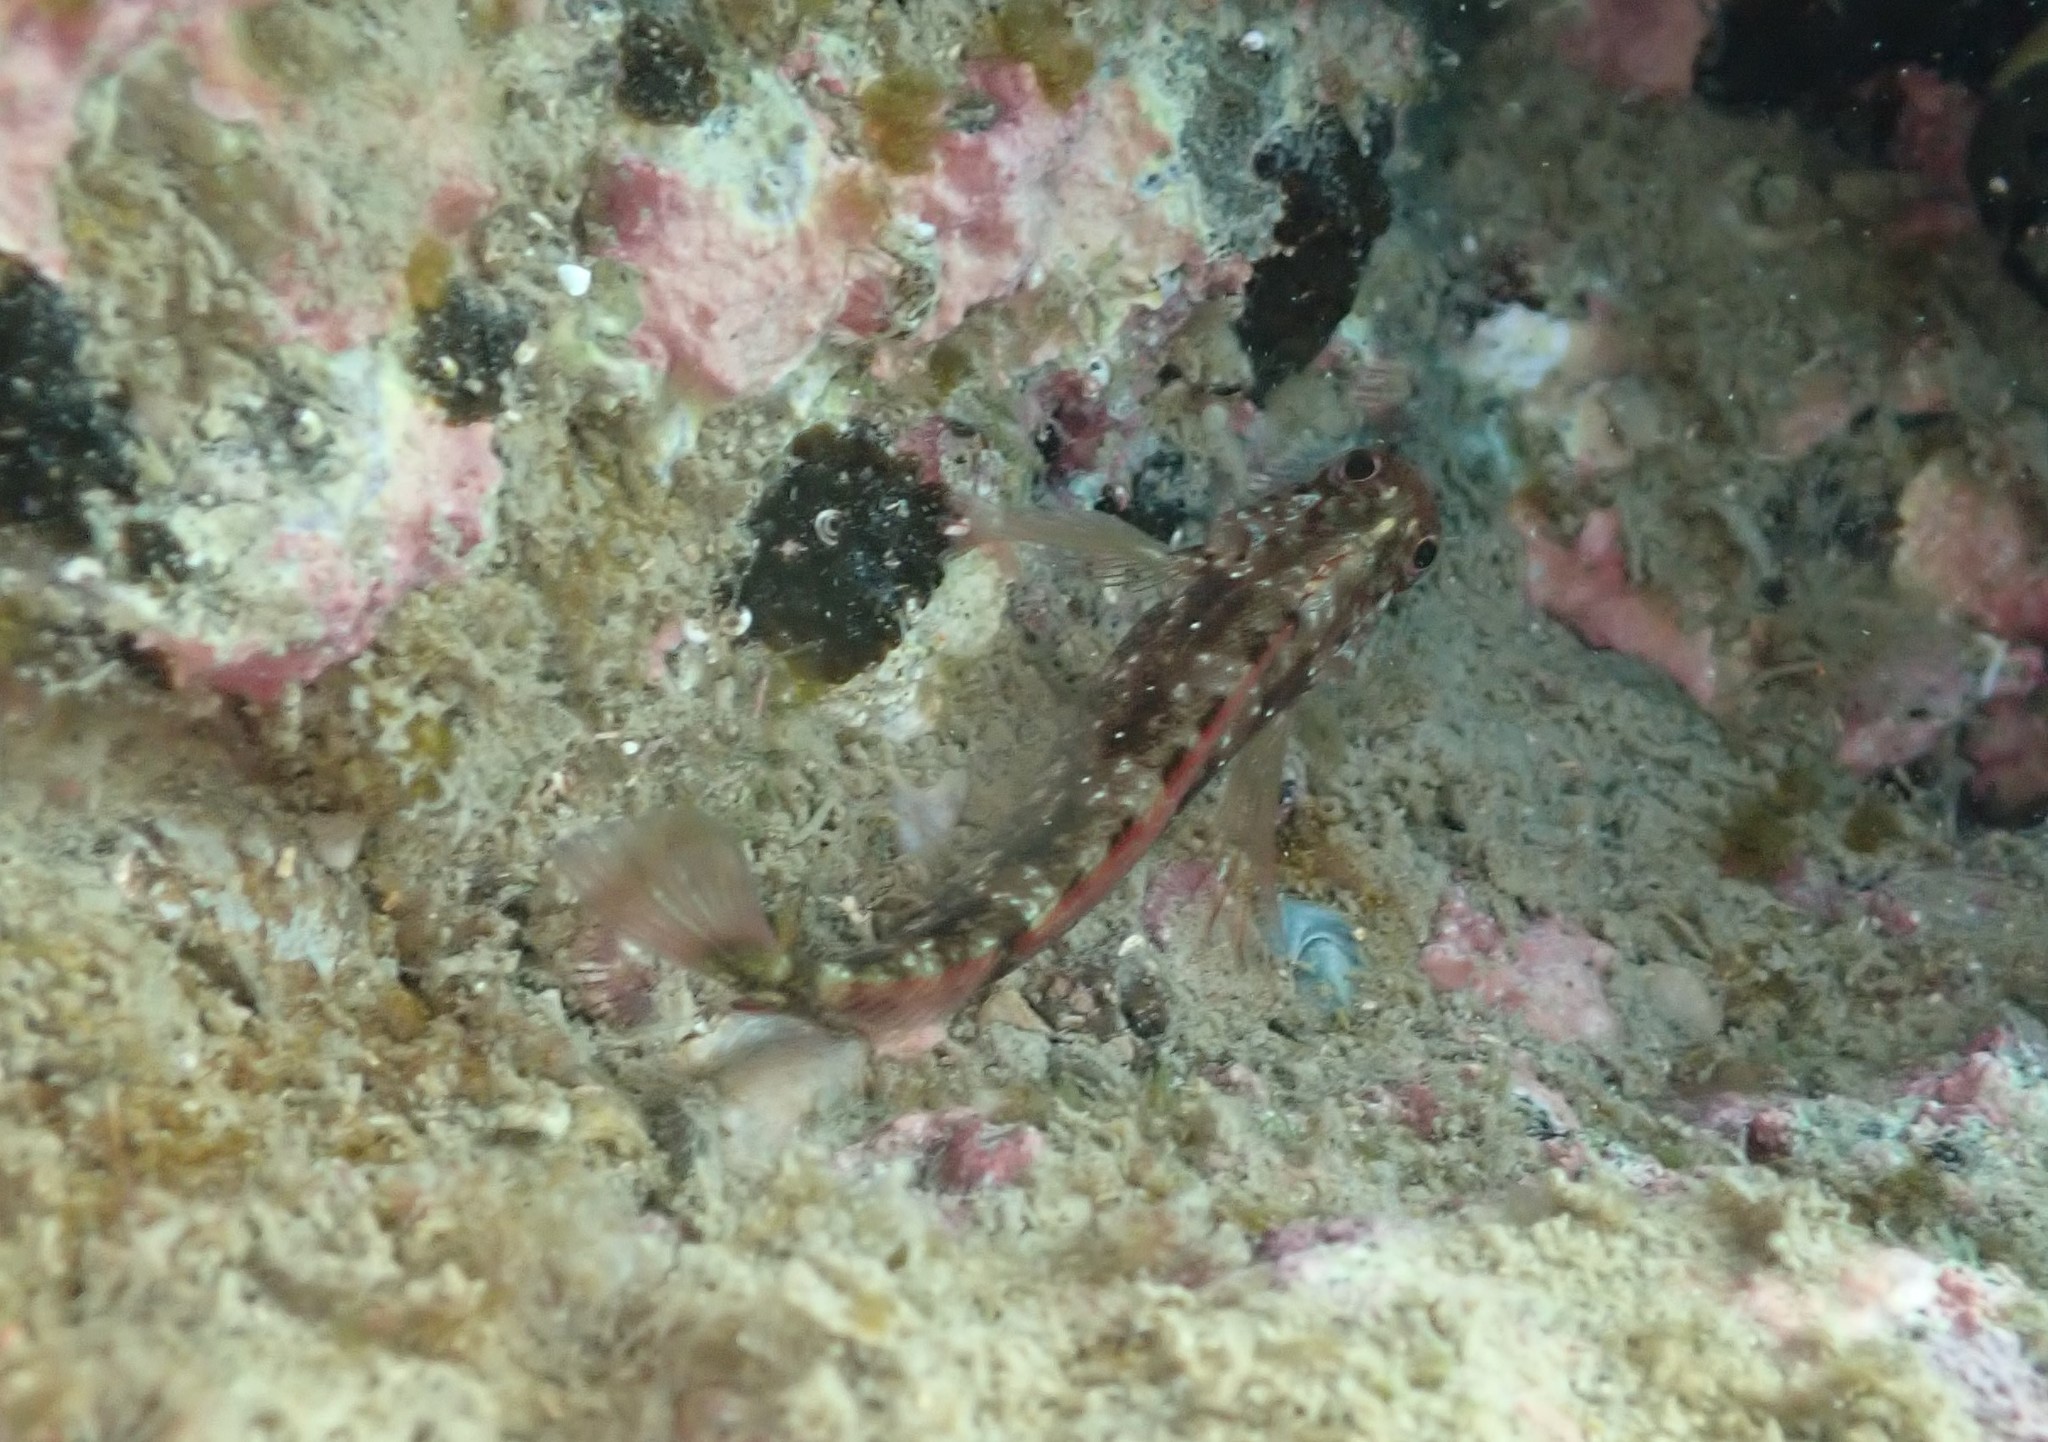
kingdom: Animalia
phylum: Chordata
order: Perciformes
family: Tripterygiidae
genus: Forsterygion
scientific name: Forsterygion lapillum
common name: Common triplefin
